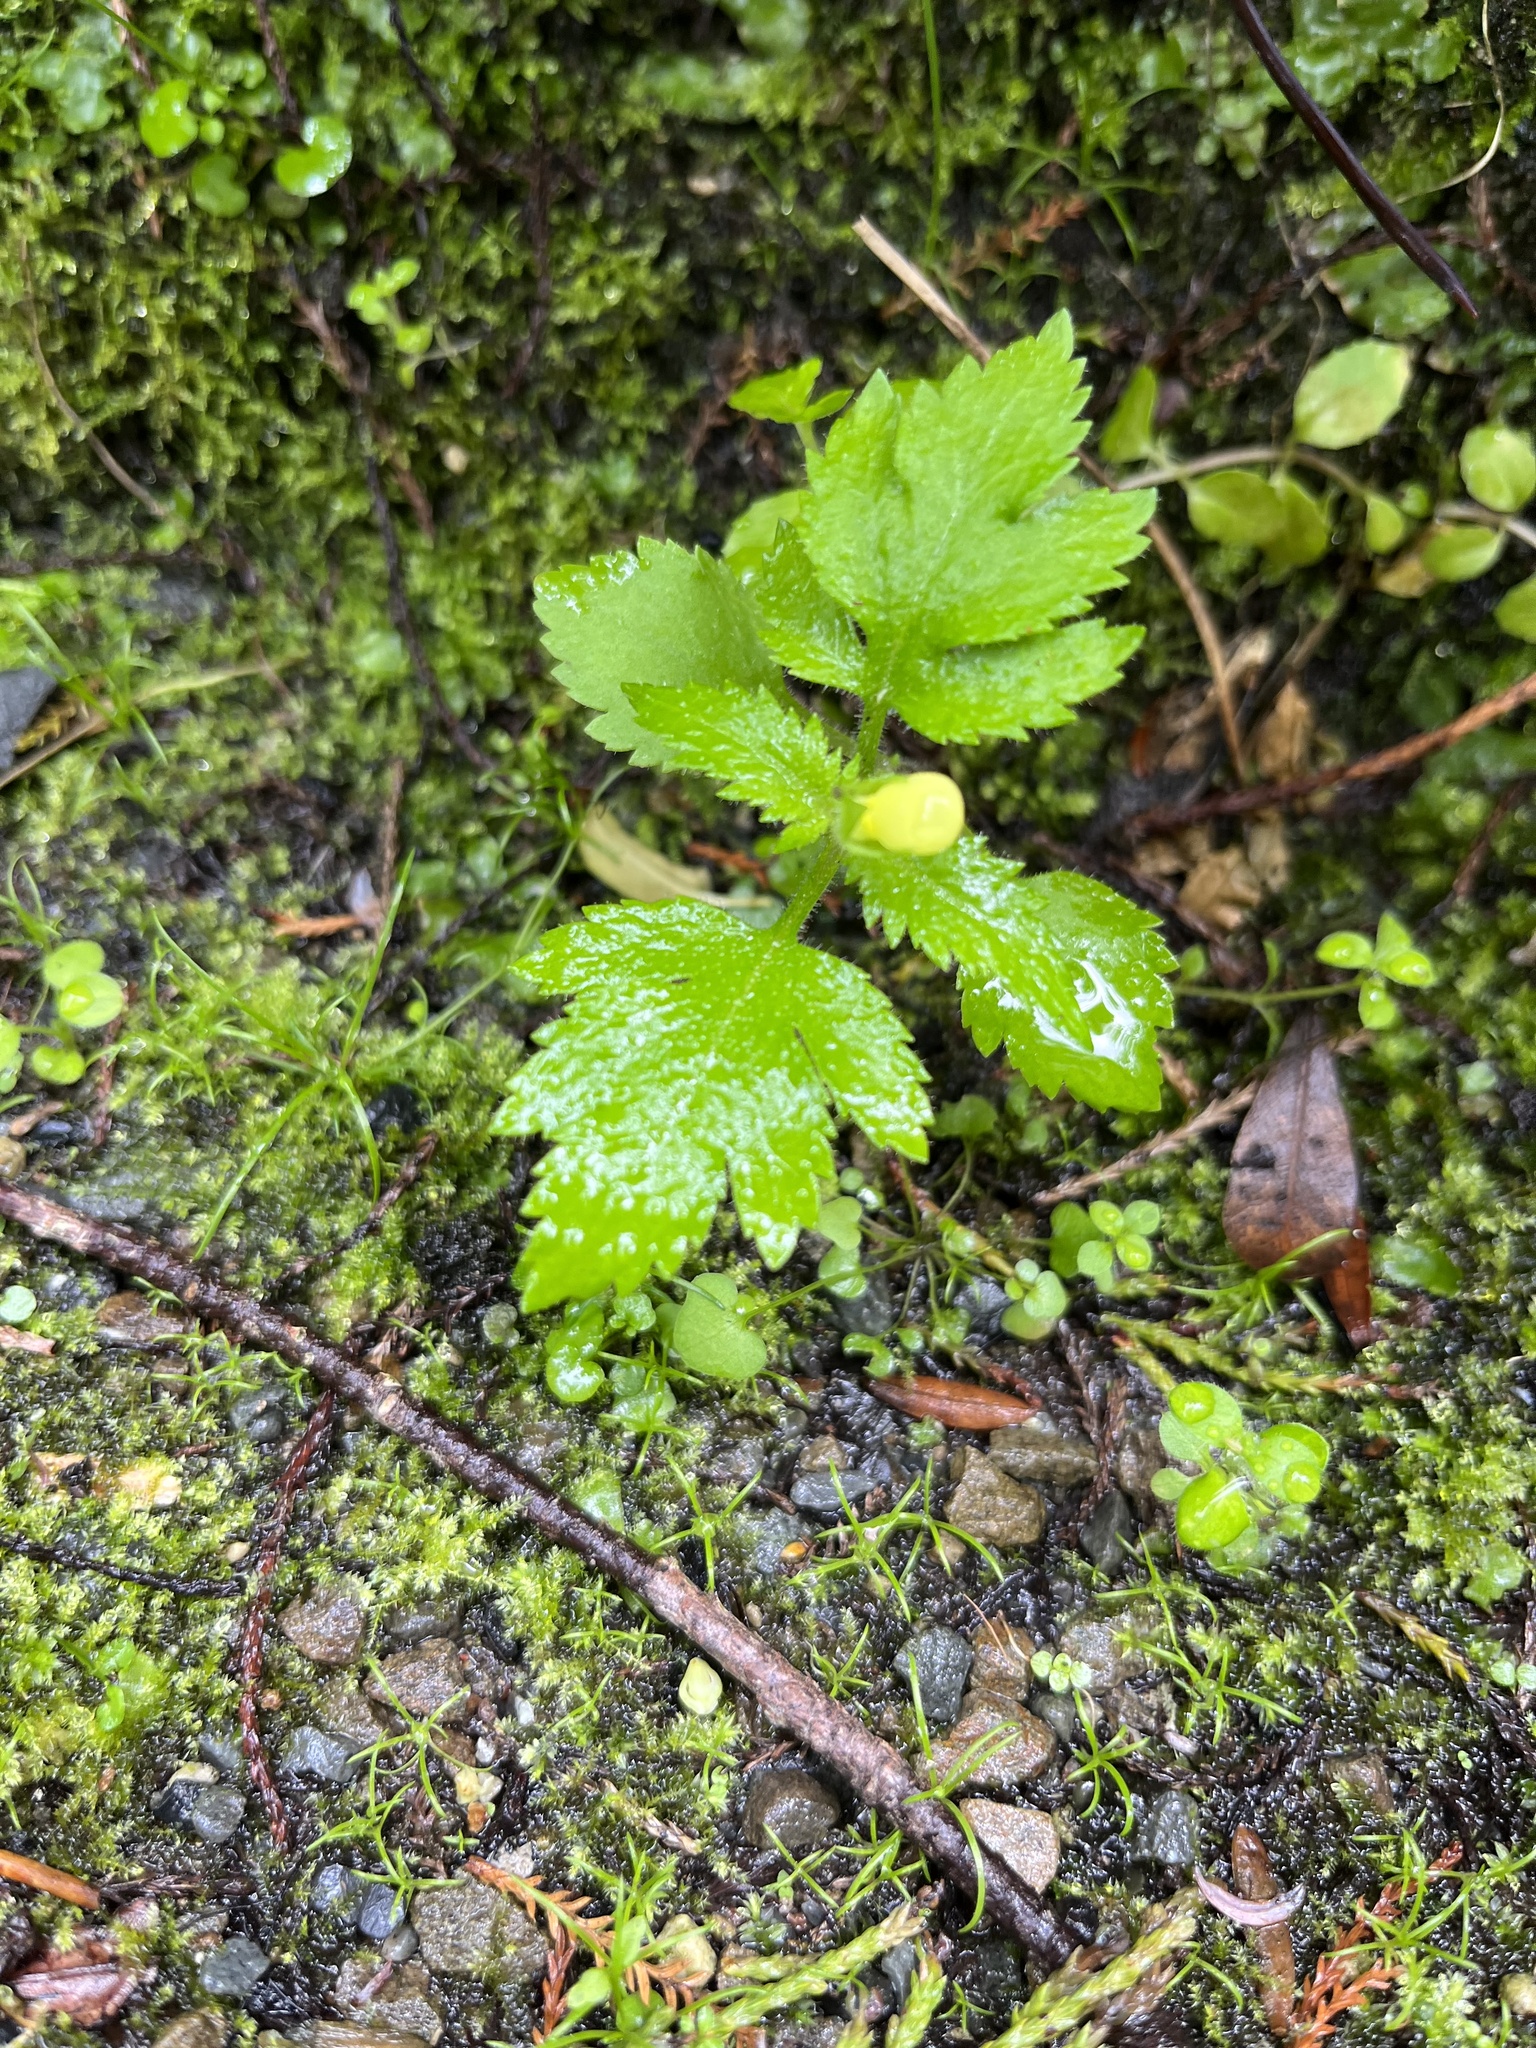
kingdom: Plantae
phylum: Tracheophyta
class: Magnoliopsida
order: Lamiales
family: Calceolariaceae
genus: Calceolaria
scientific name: Calceolaria tripartita
